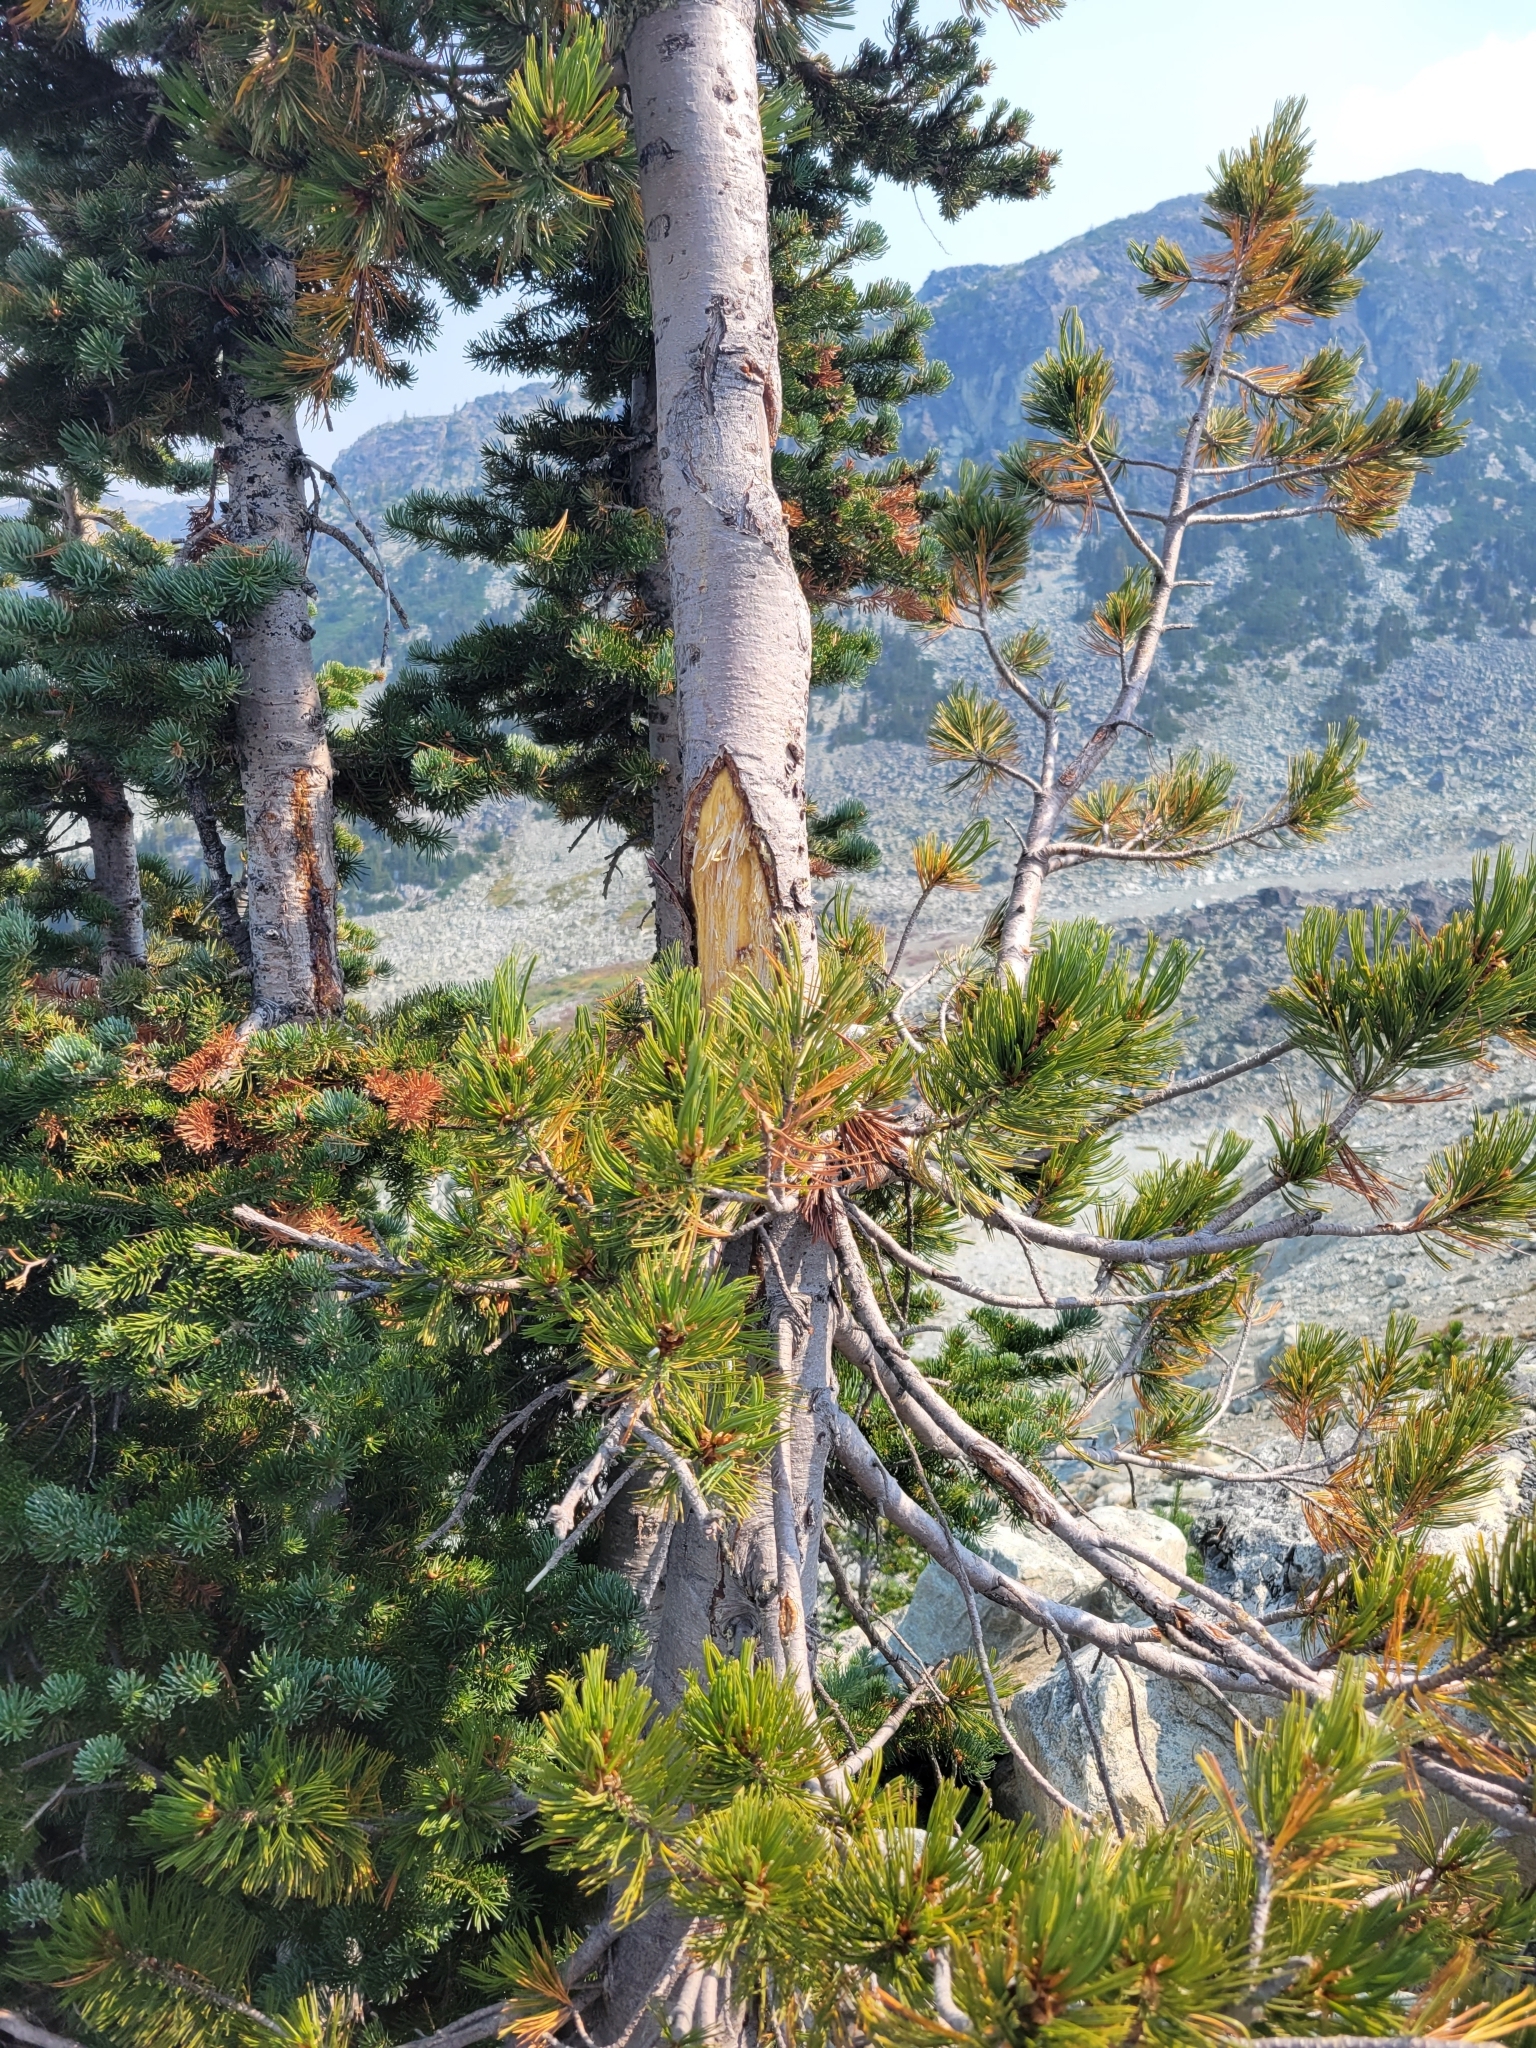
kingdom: Plantae
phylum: Tracheophyta
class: Pinopsida
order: Pinales
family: Pinaceae
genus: Pinus
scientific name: Pinus albicaulis
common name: Whitebark pine
